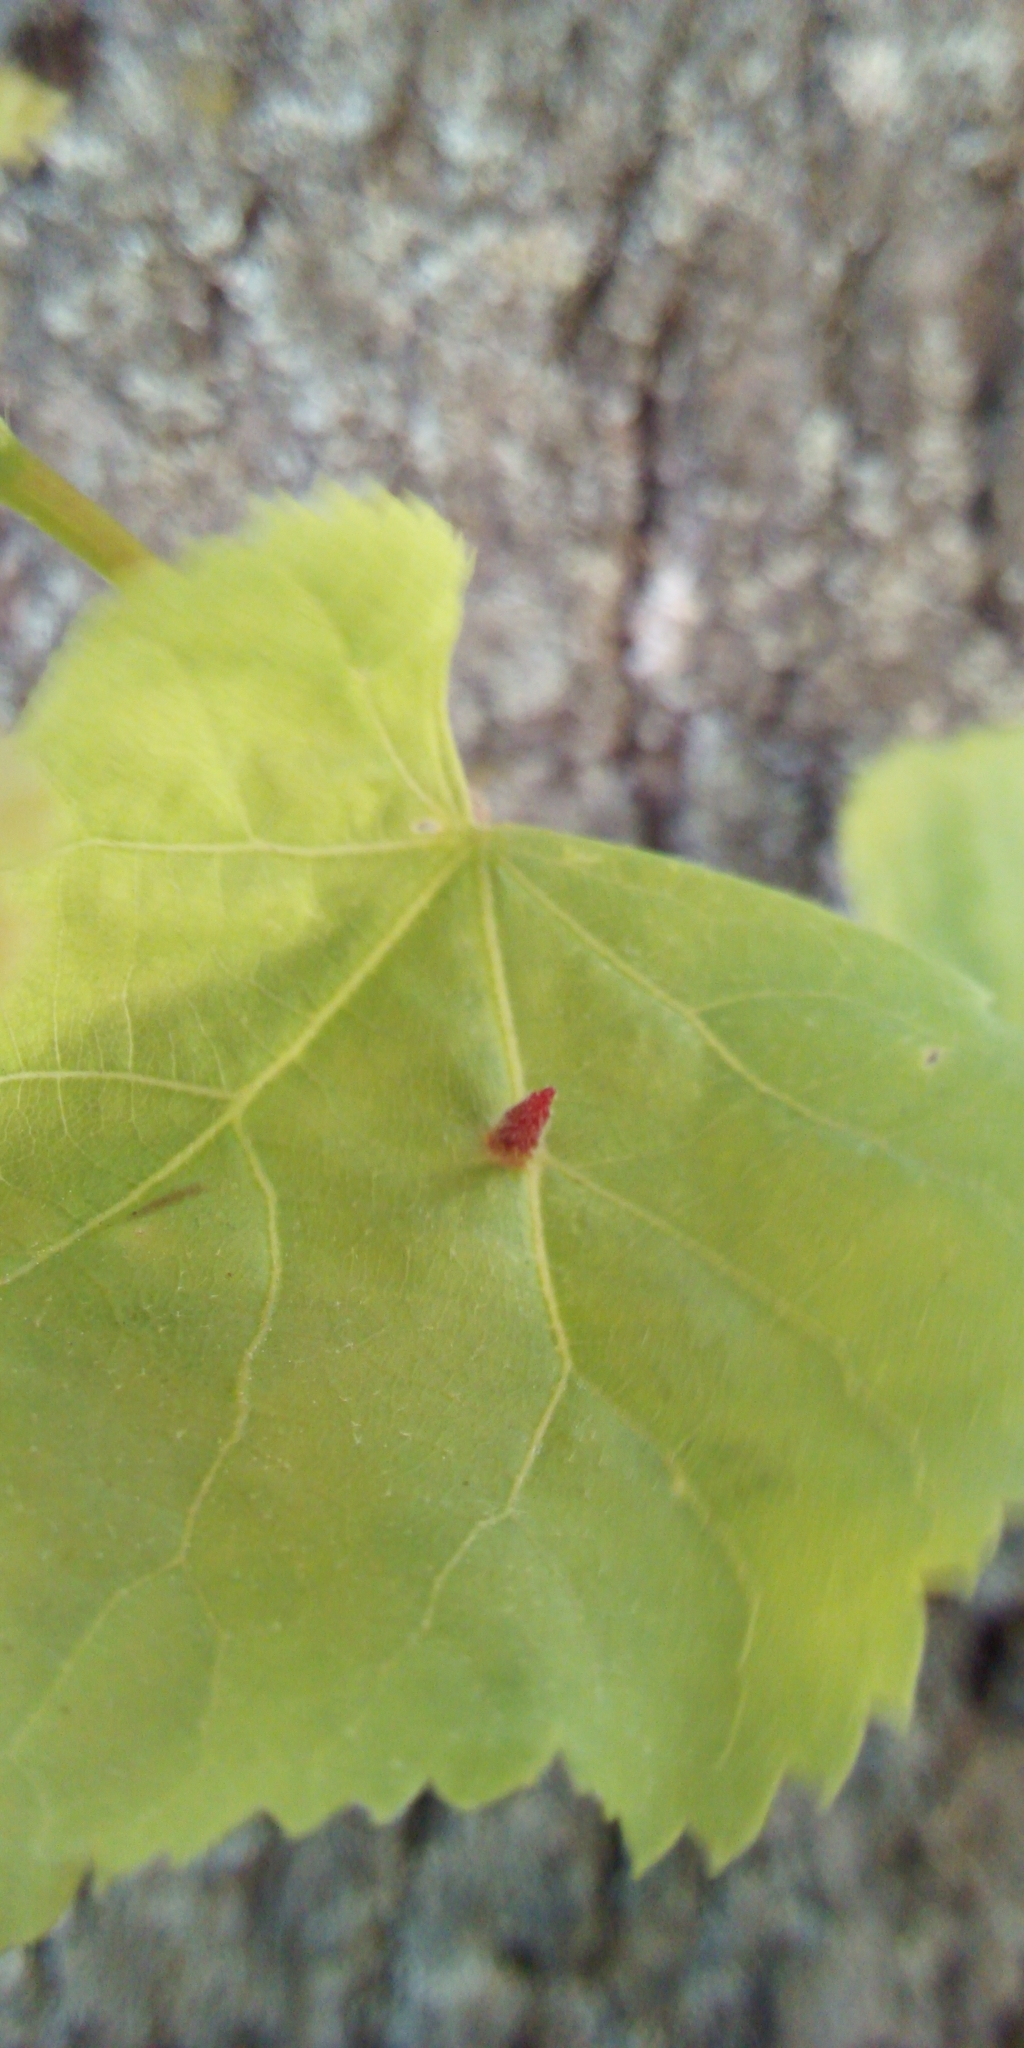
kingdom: Animalia
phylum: Arthropoda
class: Arachnida
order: Trombidiformes
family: Eriophyidae
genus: Eriophyes
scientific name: Eriophyes tiliae
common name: Red nail gall mite
